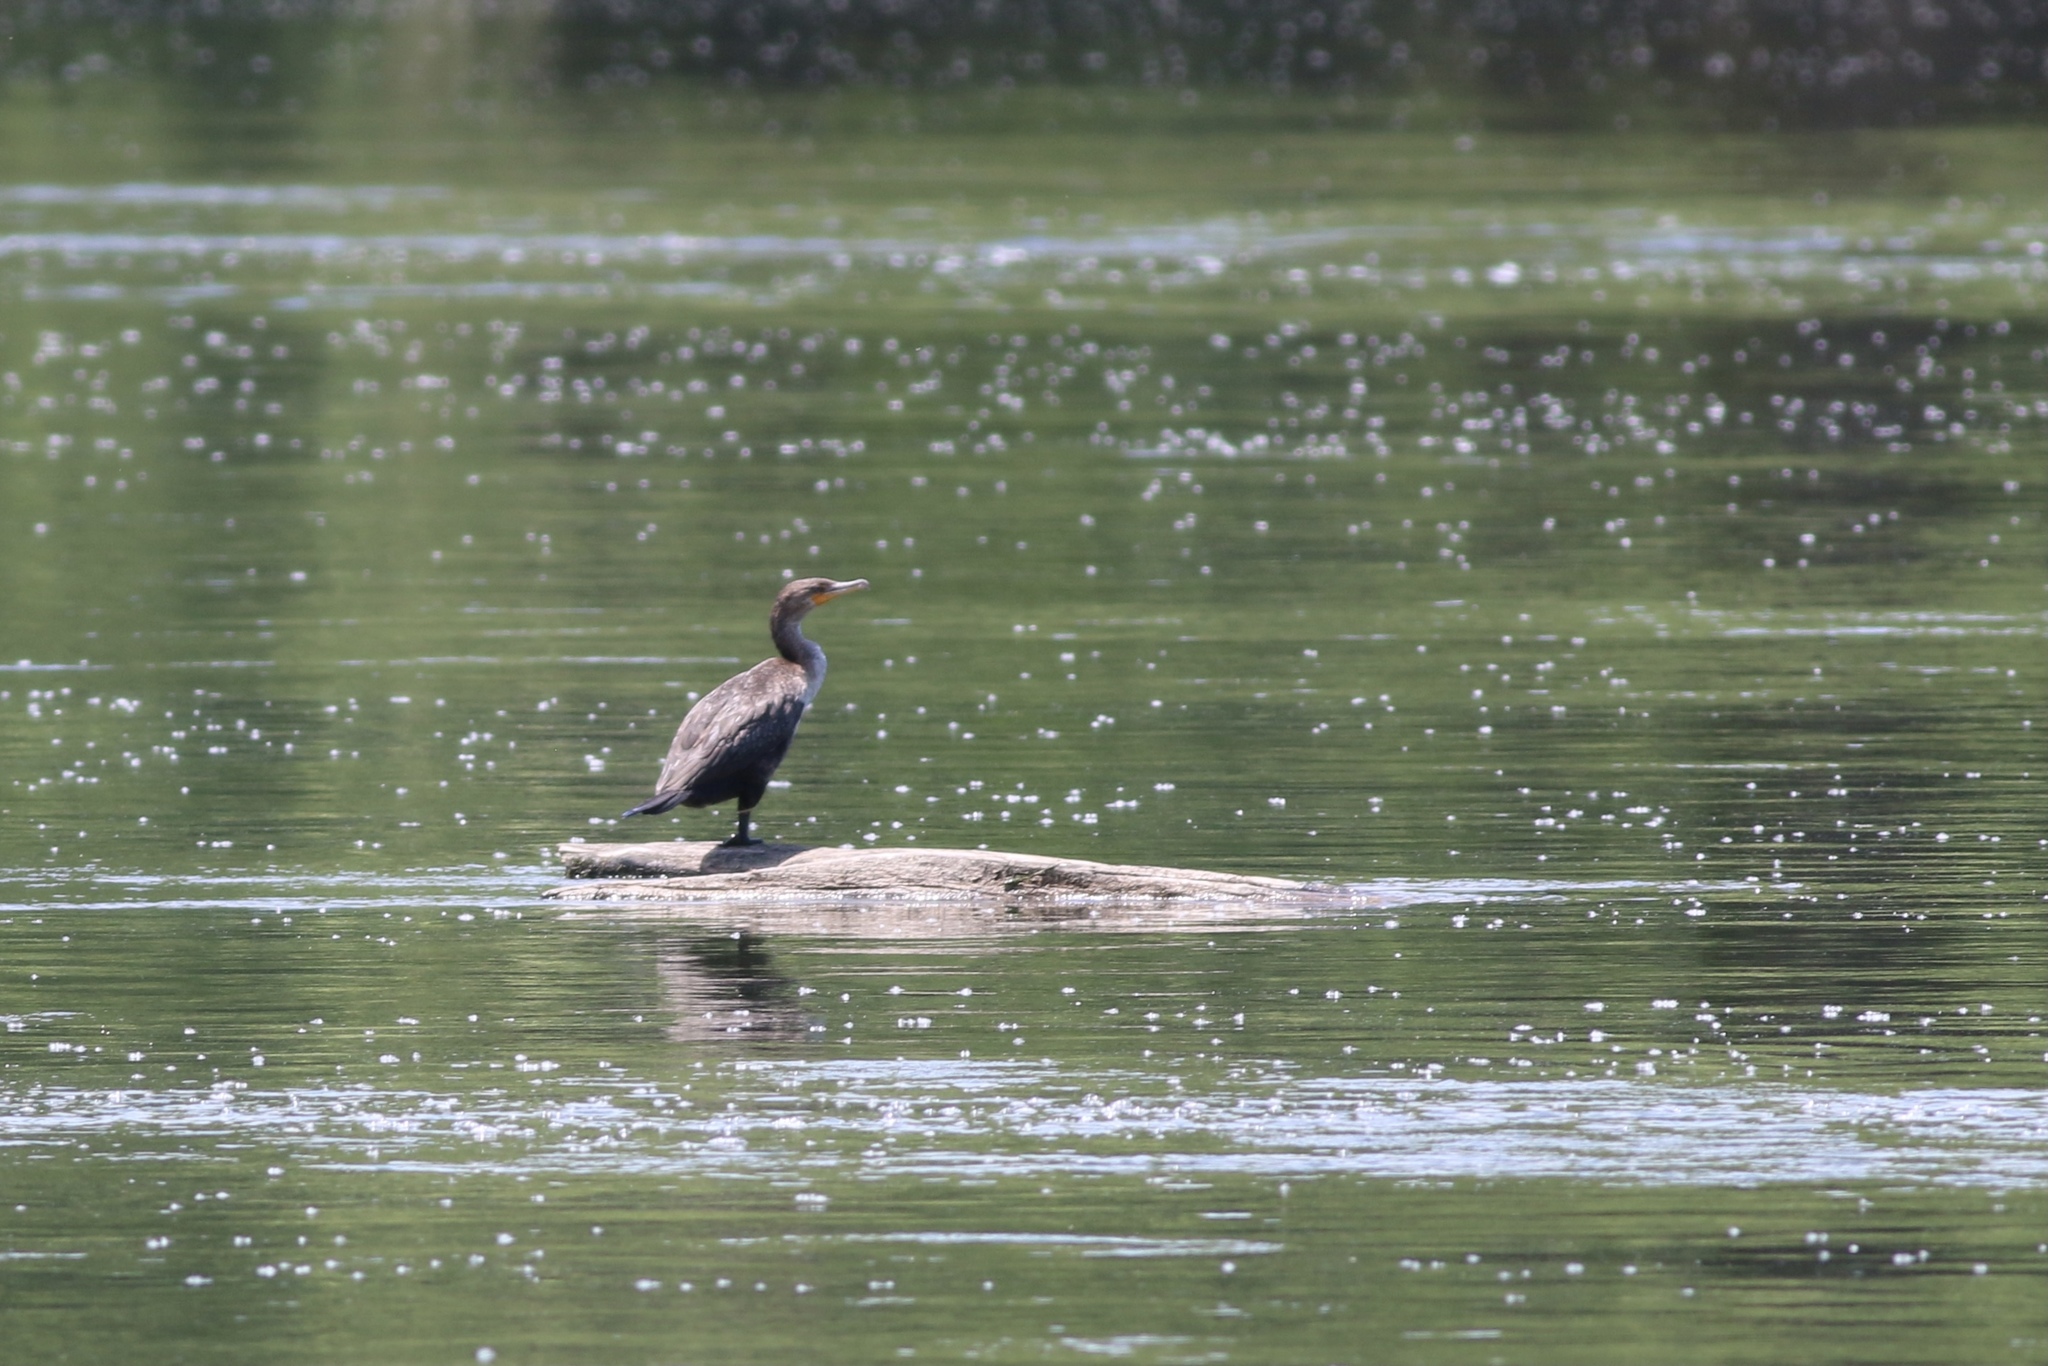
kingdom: Animalia
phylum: Chordata
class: Aves
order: Suliformes
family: Phalacrocoracidae
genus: Phalacrocorax
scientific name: Phalacrocorax auritus
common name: Double-crested cormorant
